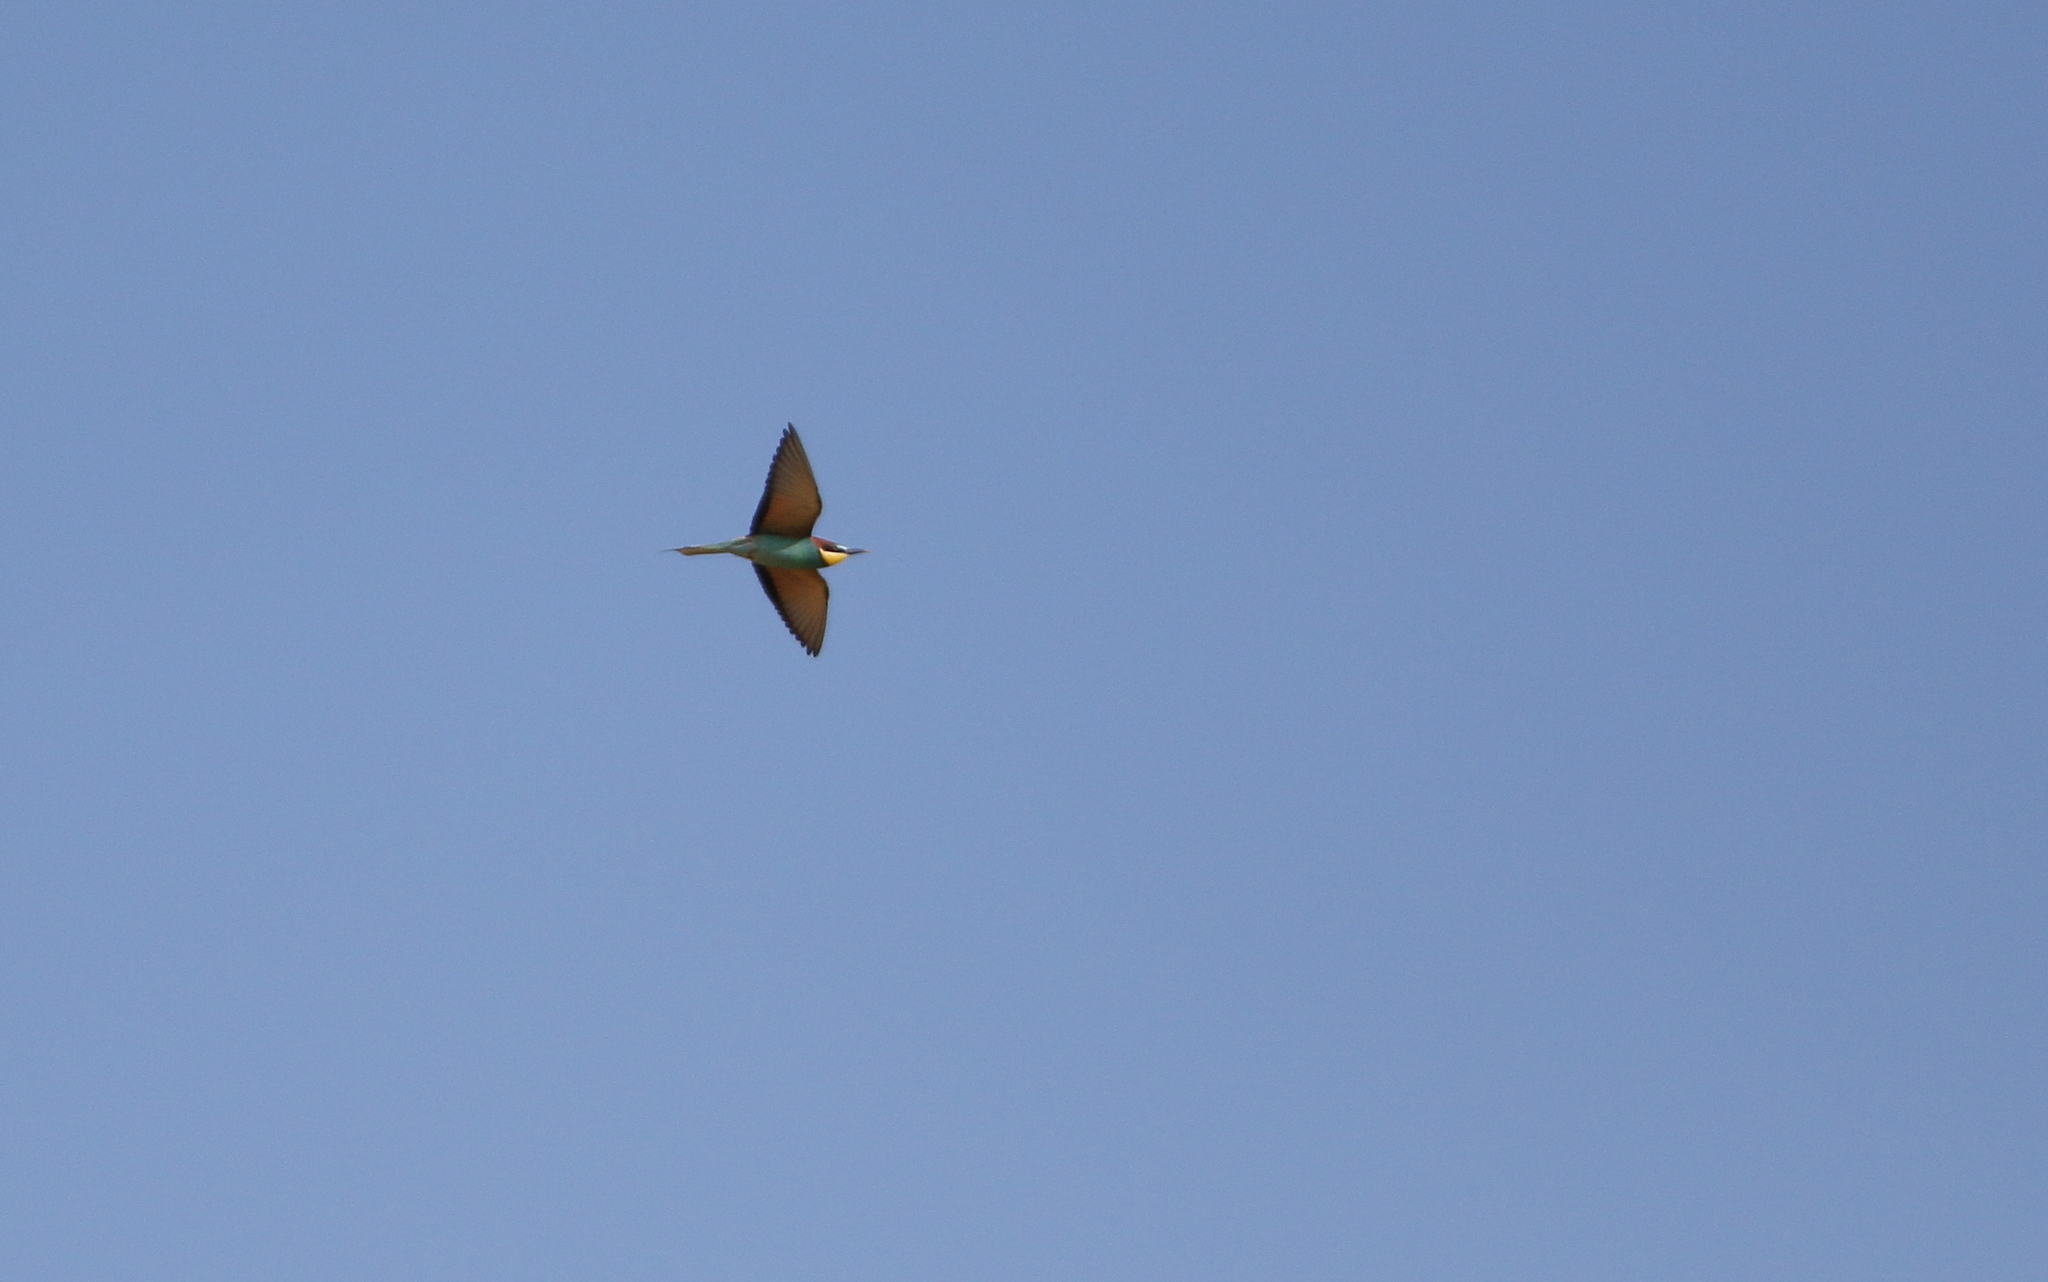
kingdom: Animalia
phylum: Chordata
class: Aves
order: Coraciiformes
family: Meropidae
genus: Merops
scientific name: Merops apiaster
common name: European bee-eater
